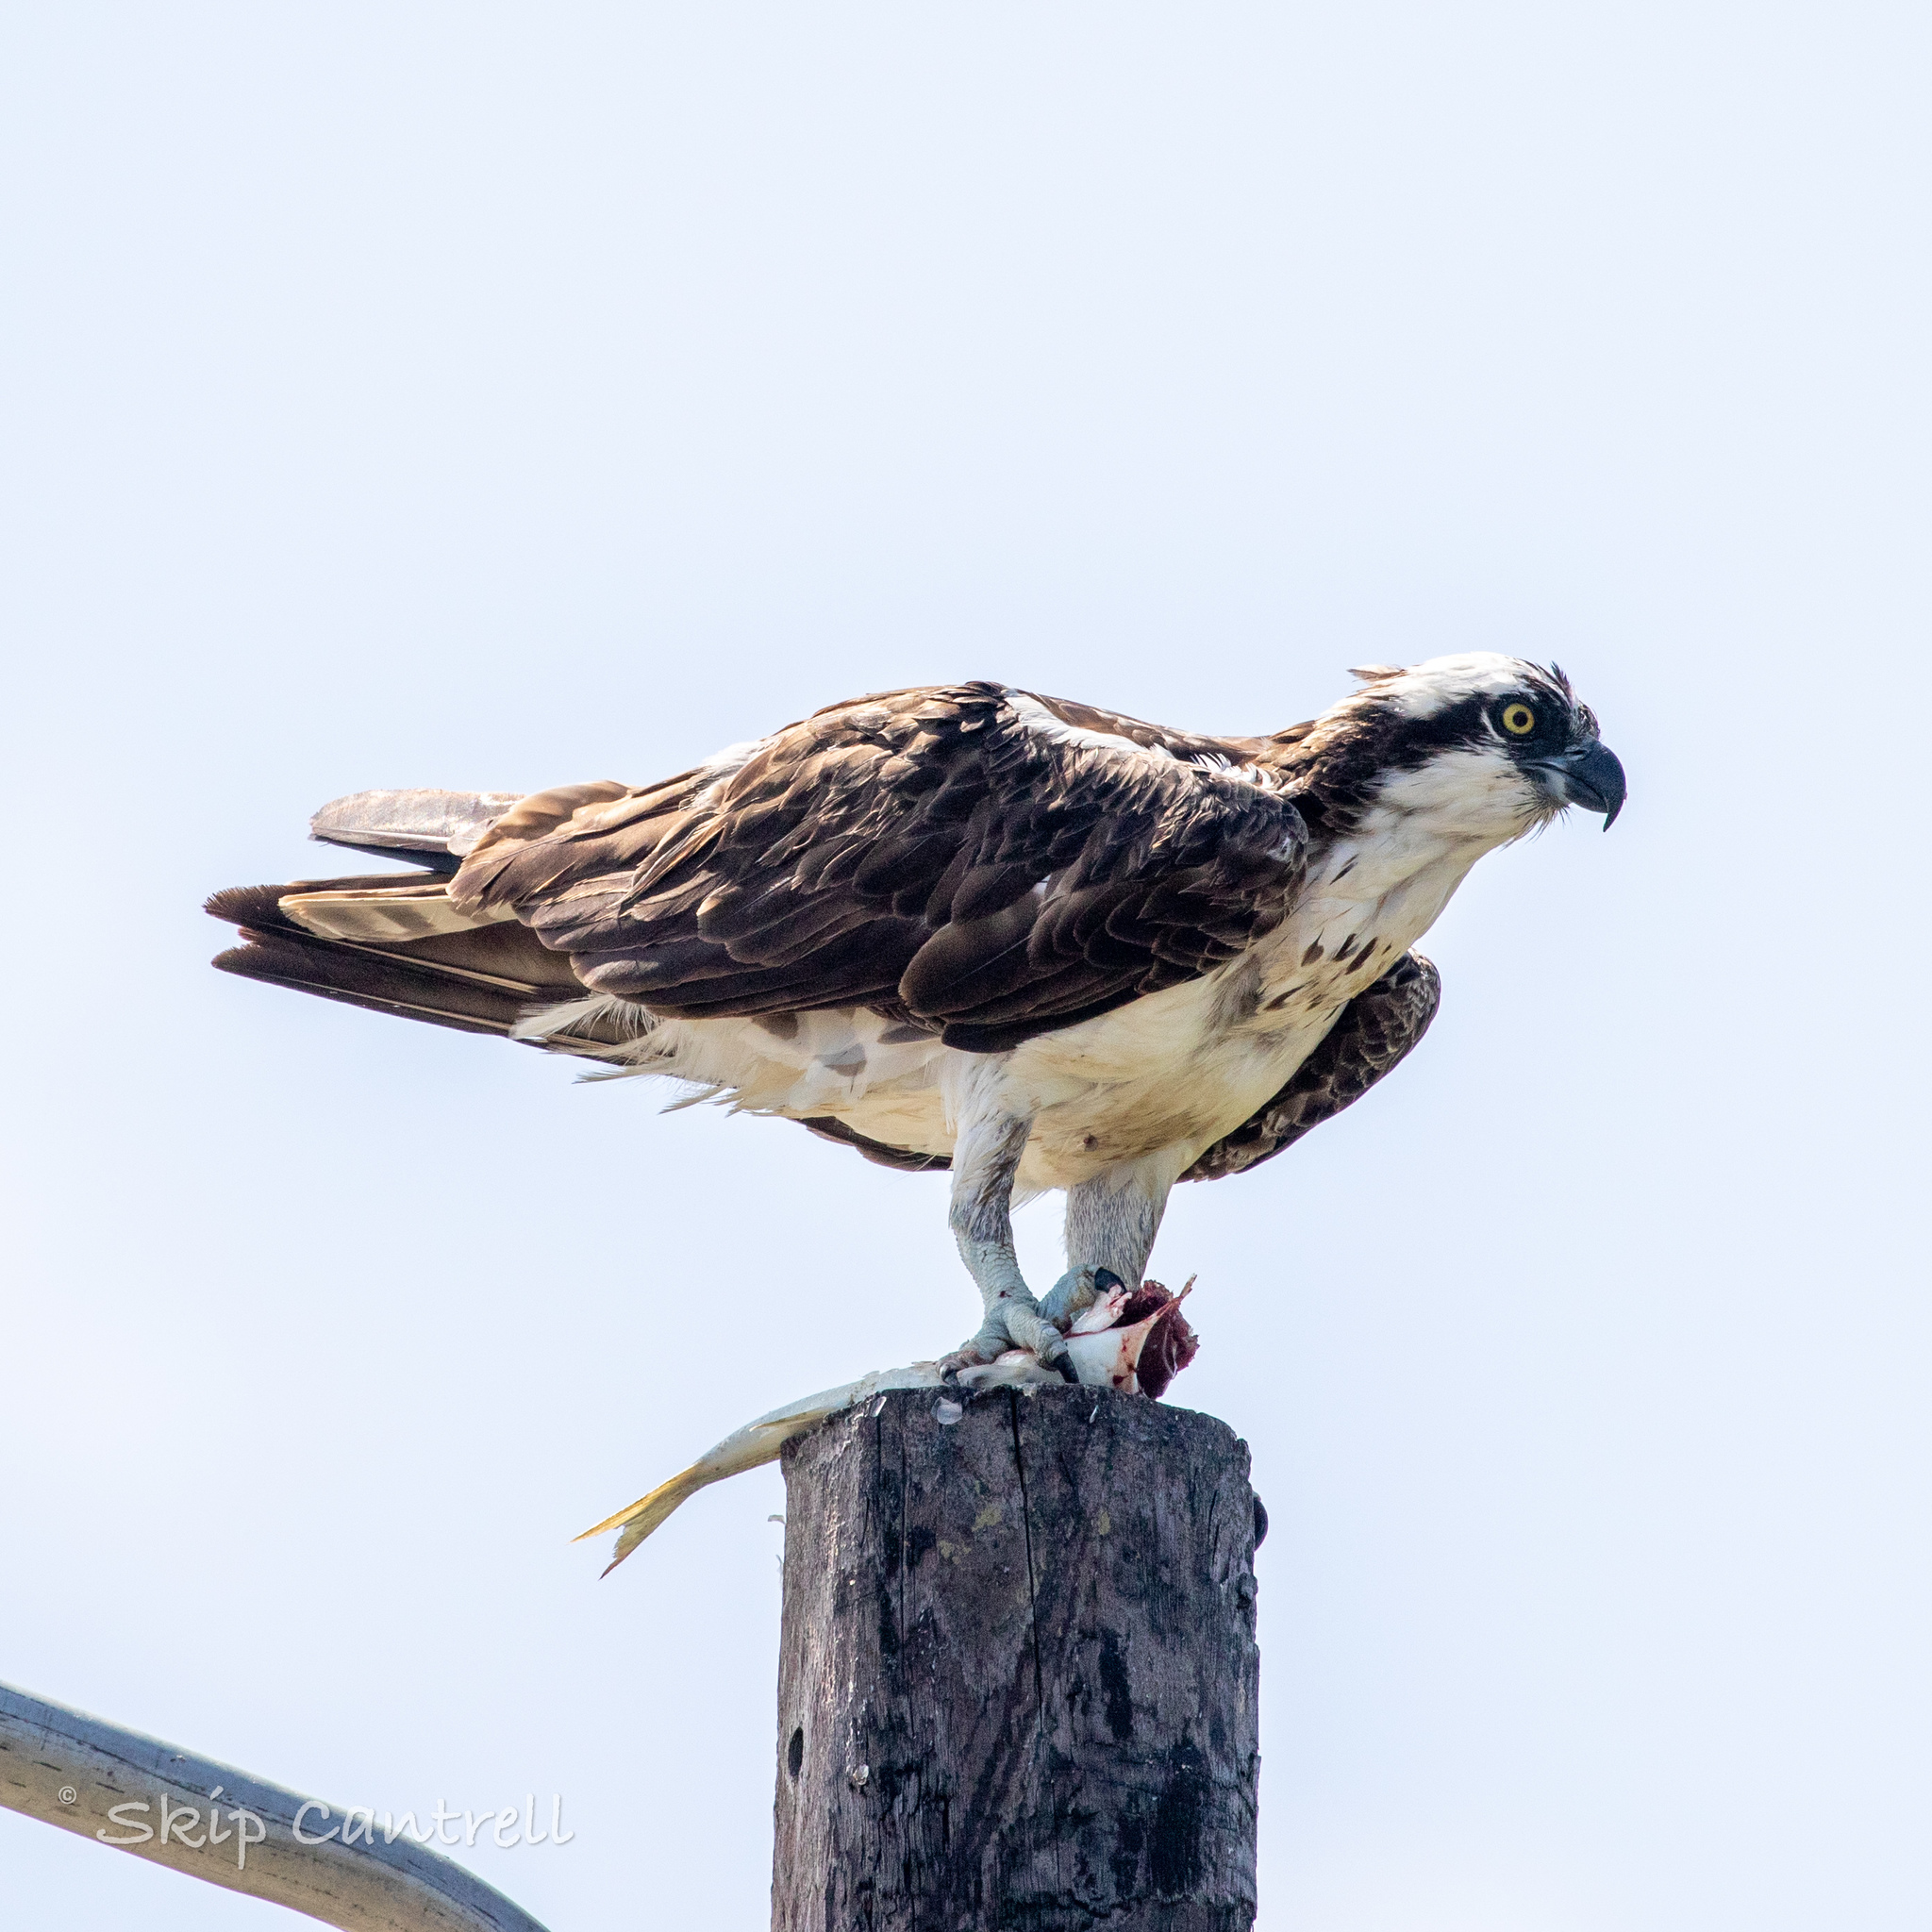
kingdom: Animalia
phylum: Chordata
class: Aves
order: Accipitriformes
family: Pandionidae
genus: Pandion
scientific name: Pandion haliaetus
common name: Osprey
